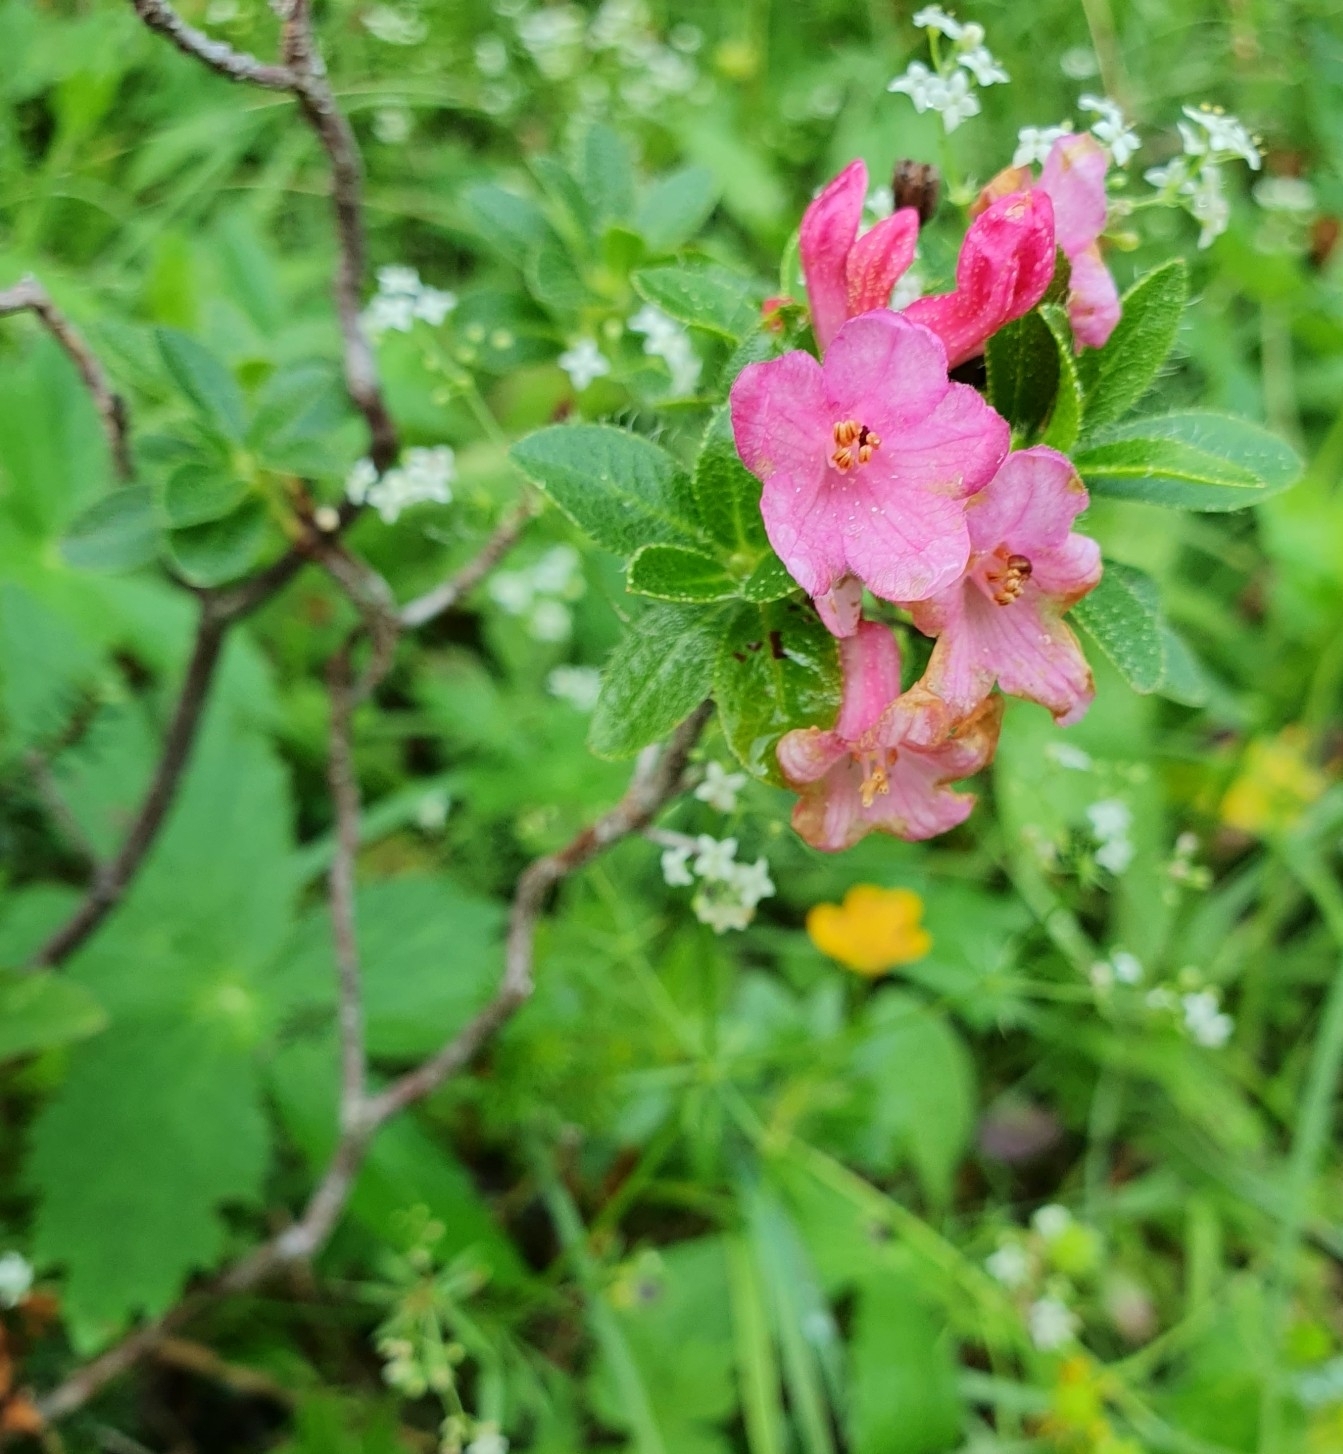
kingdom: Plantae
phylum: Tracheophyta
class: Magnoliopsida
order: Ericales
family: Ericaceae
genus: Rhododendron
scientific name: Rhododendron hirsutum
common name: Hairy alpenrose
